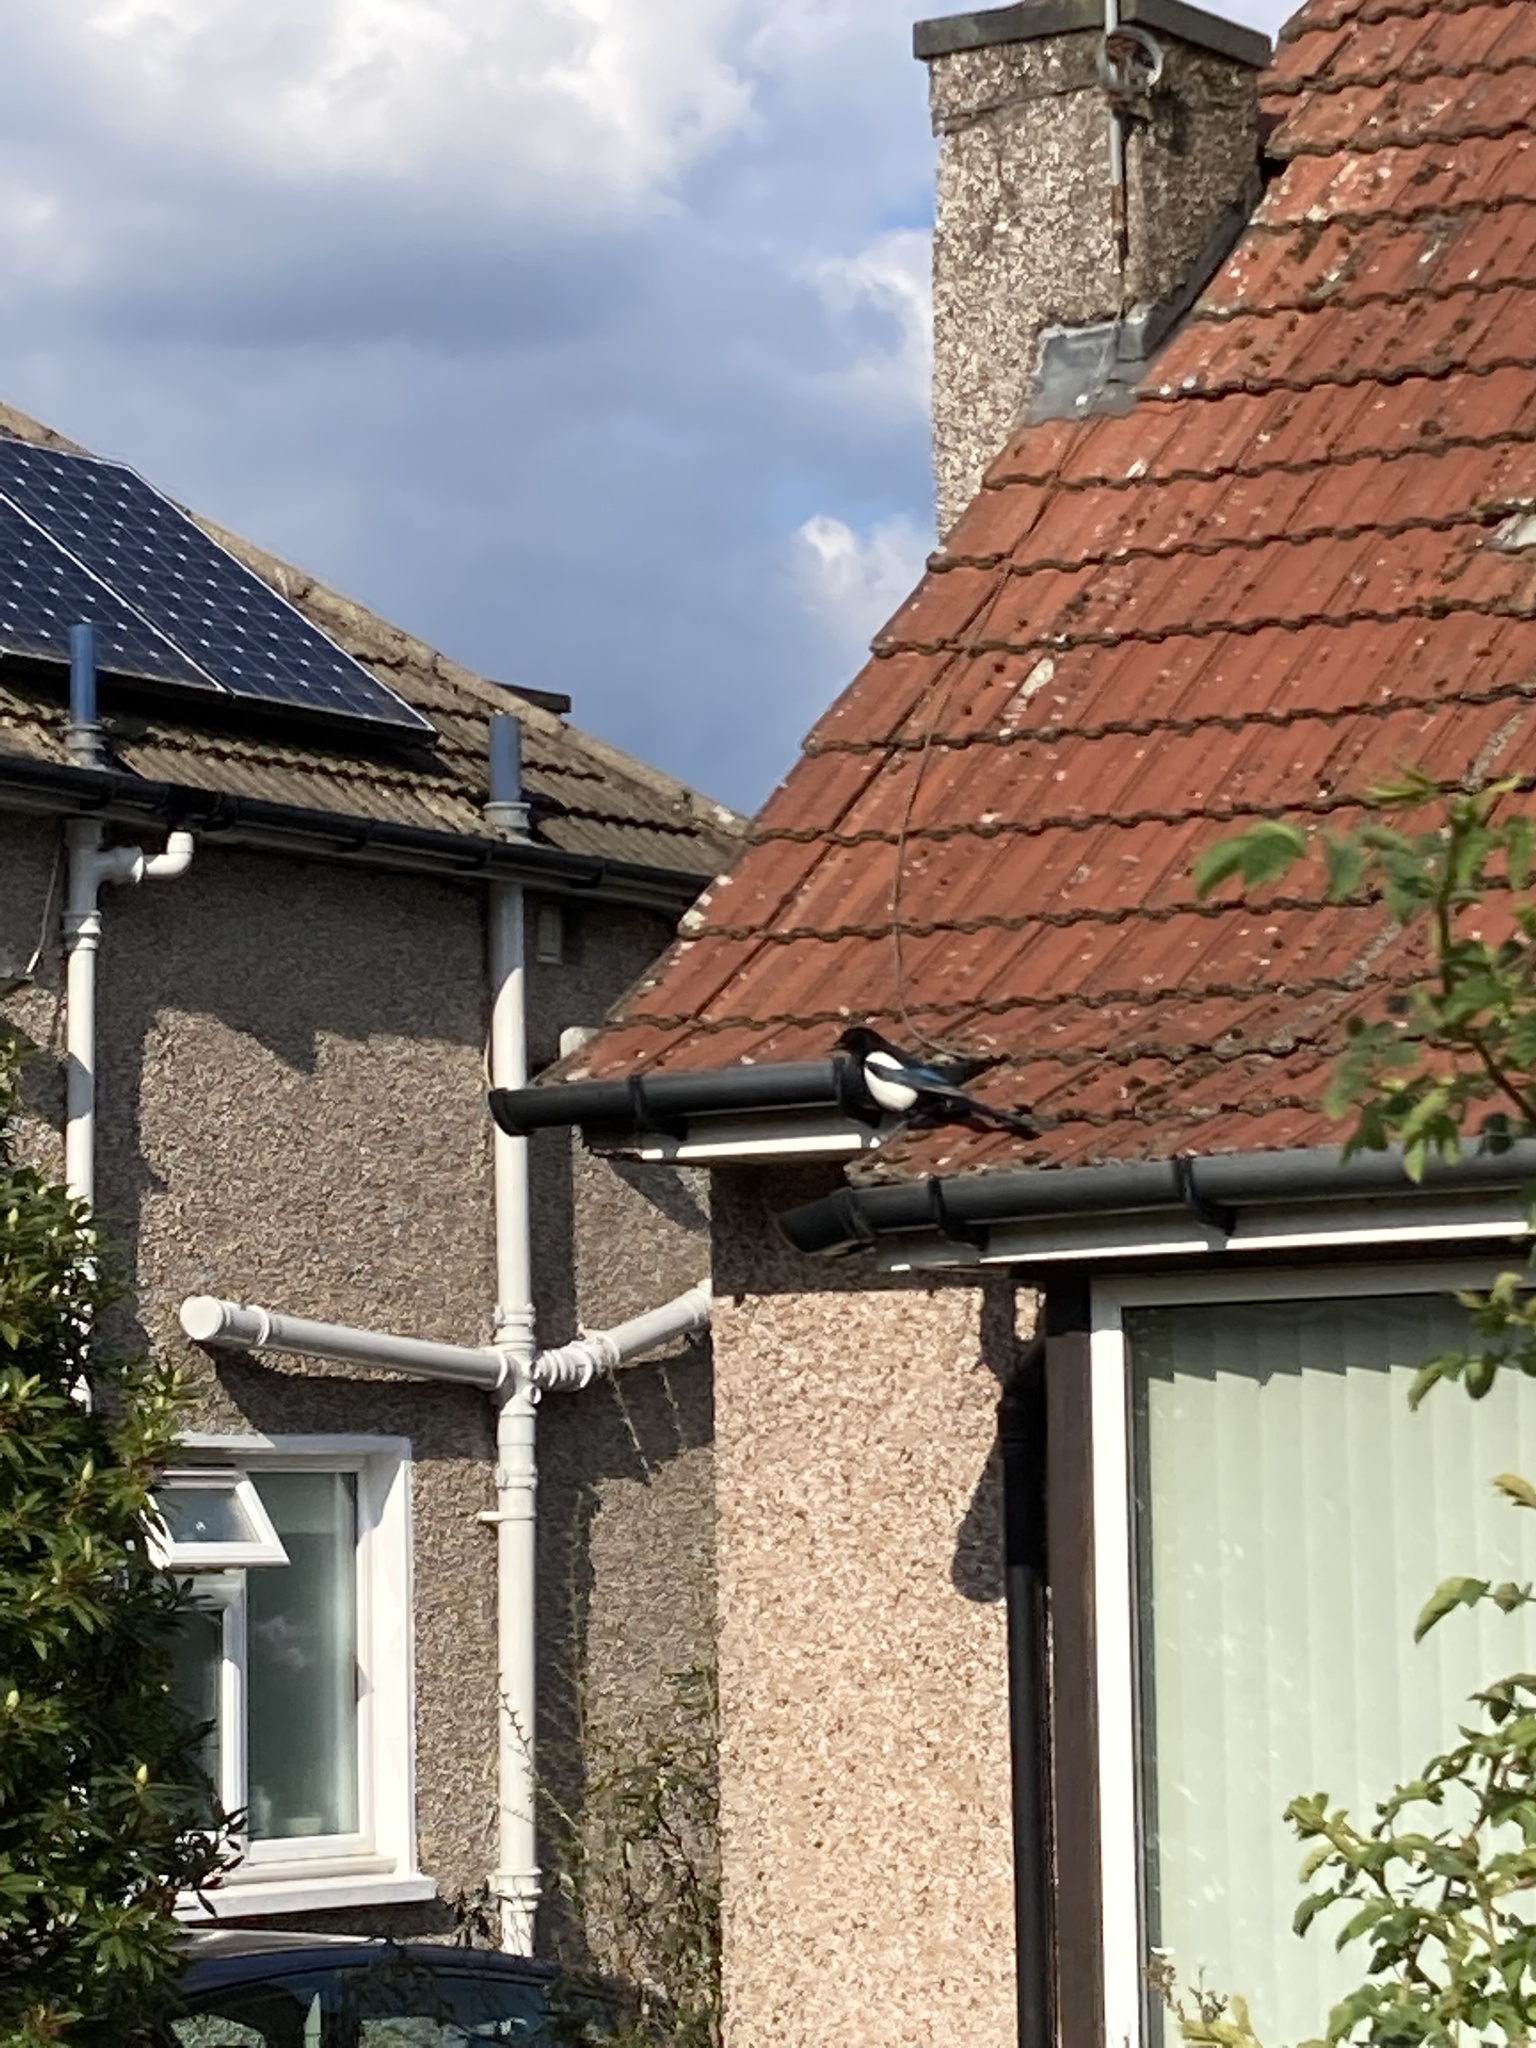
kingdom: Animalia
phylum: Chordata
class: Aves
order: Passeriformes
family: Corvidae
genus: Pica
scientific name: Pica pica
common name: Eurasian magpie
